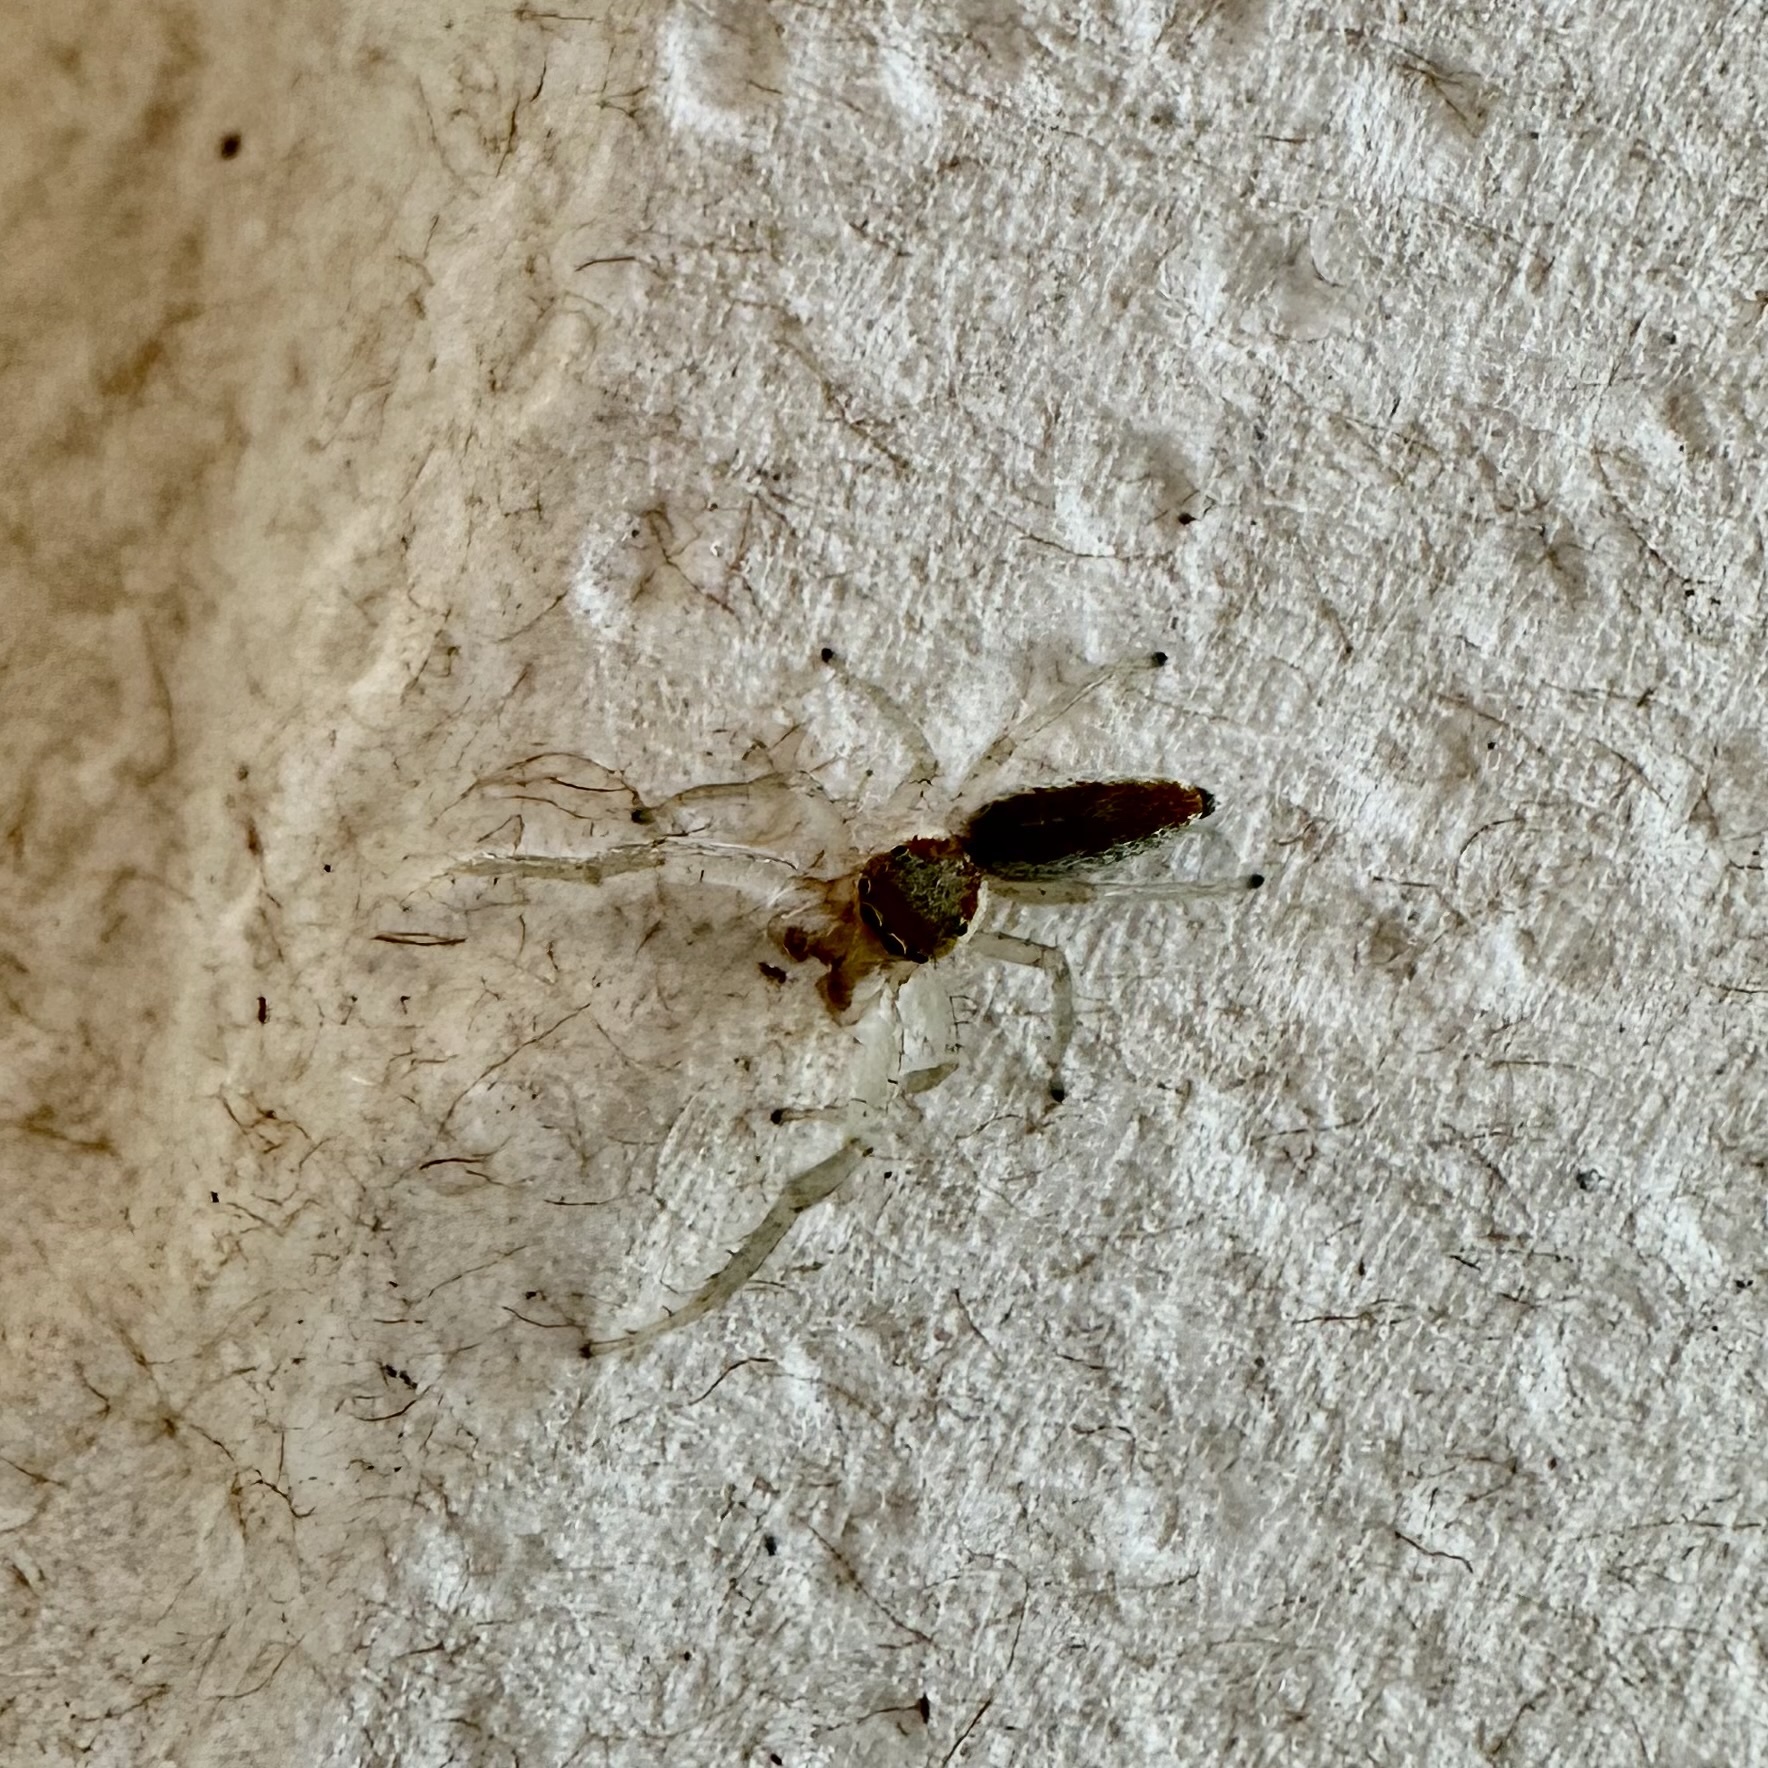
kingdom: Animalia
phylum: Arthropoda
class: Arachnida
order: Araneae
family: Salticidae
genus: Hentzia
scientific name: Hentzia mitrata
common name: White-jawed jumping spider
